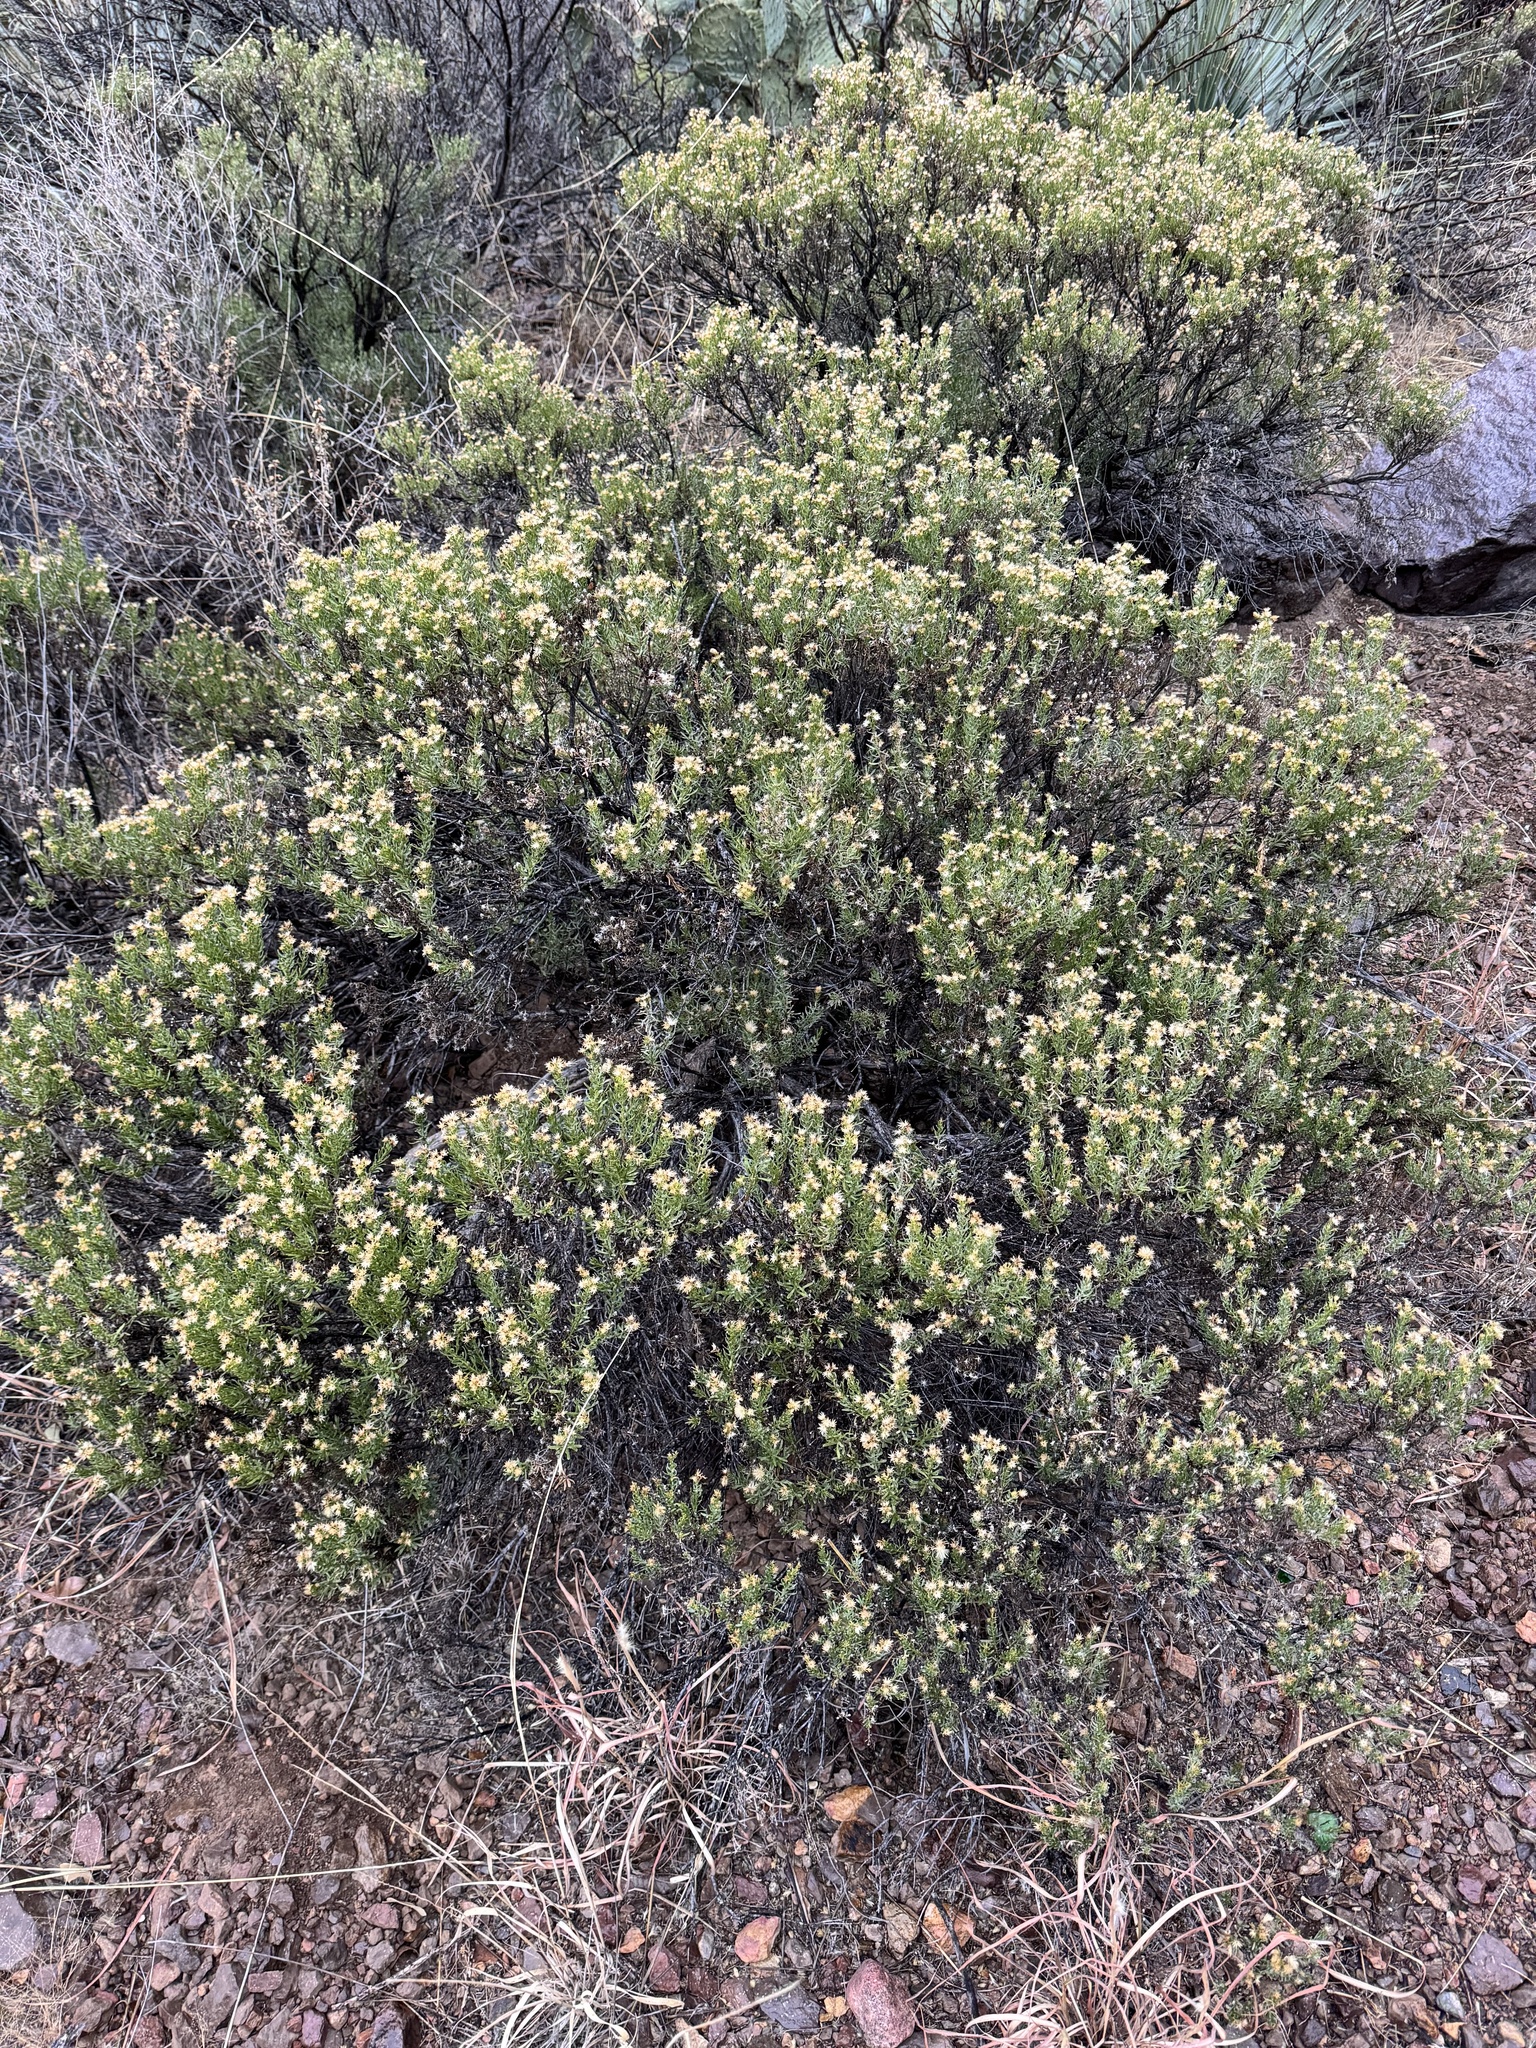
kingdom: Plantae
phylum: Tracheophyta
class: Magnoliopsida
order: Asterales
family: Asteraceae
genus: Ericameria
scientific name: Ericameria laricifolia
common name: Turpentine-bush
